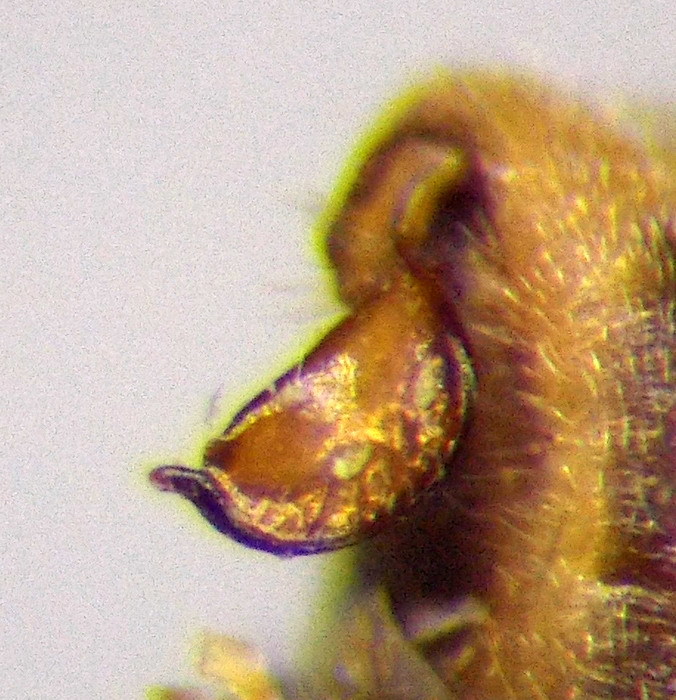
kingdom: Animalia
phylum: Arthropoda
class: Insecta
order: Hemiptera
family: Nabidae
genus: Nabis
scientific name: Nabis pseudoferus
